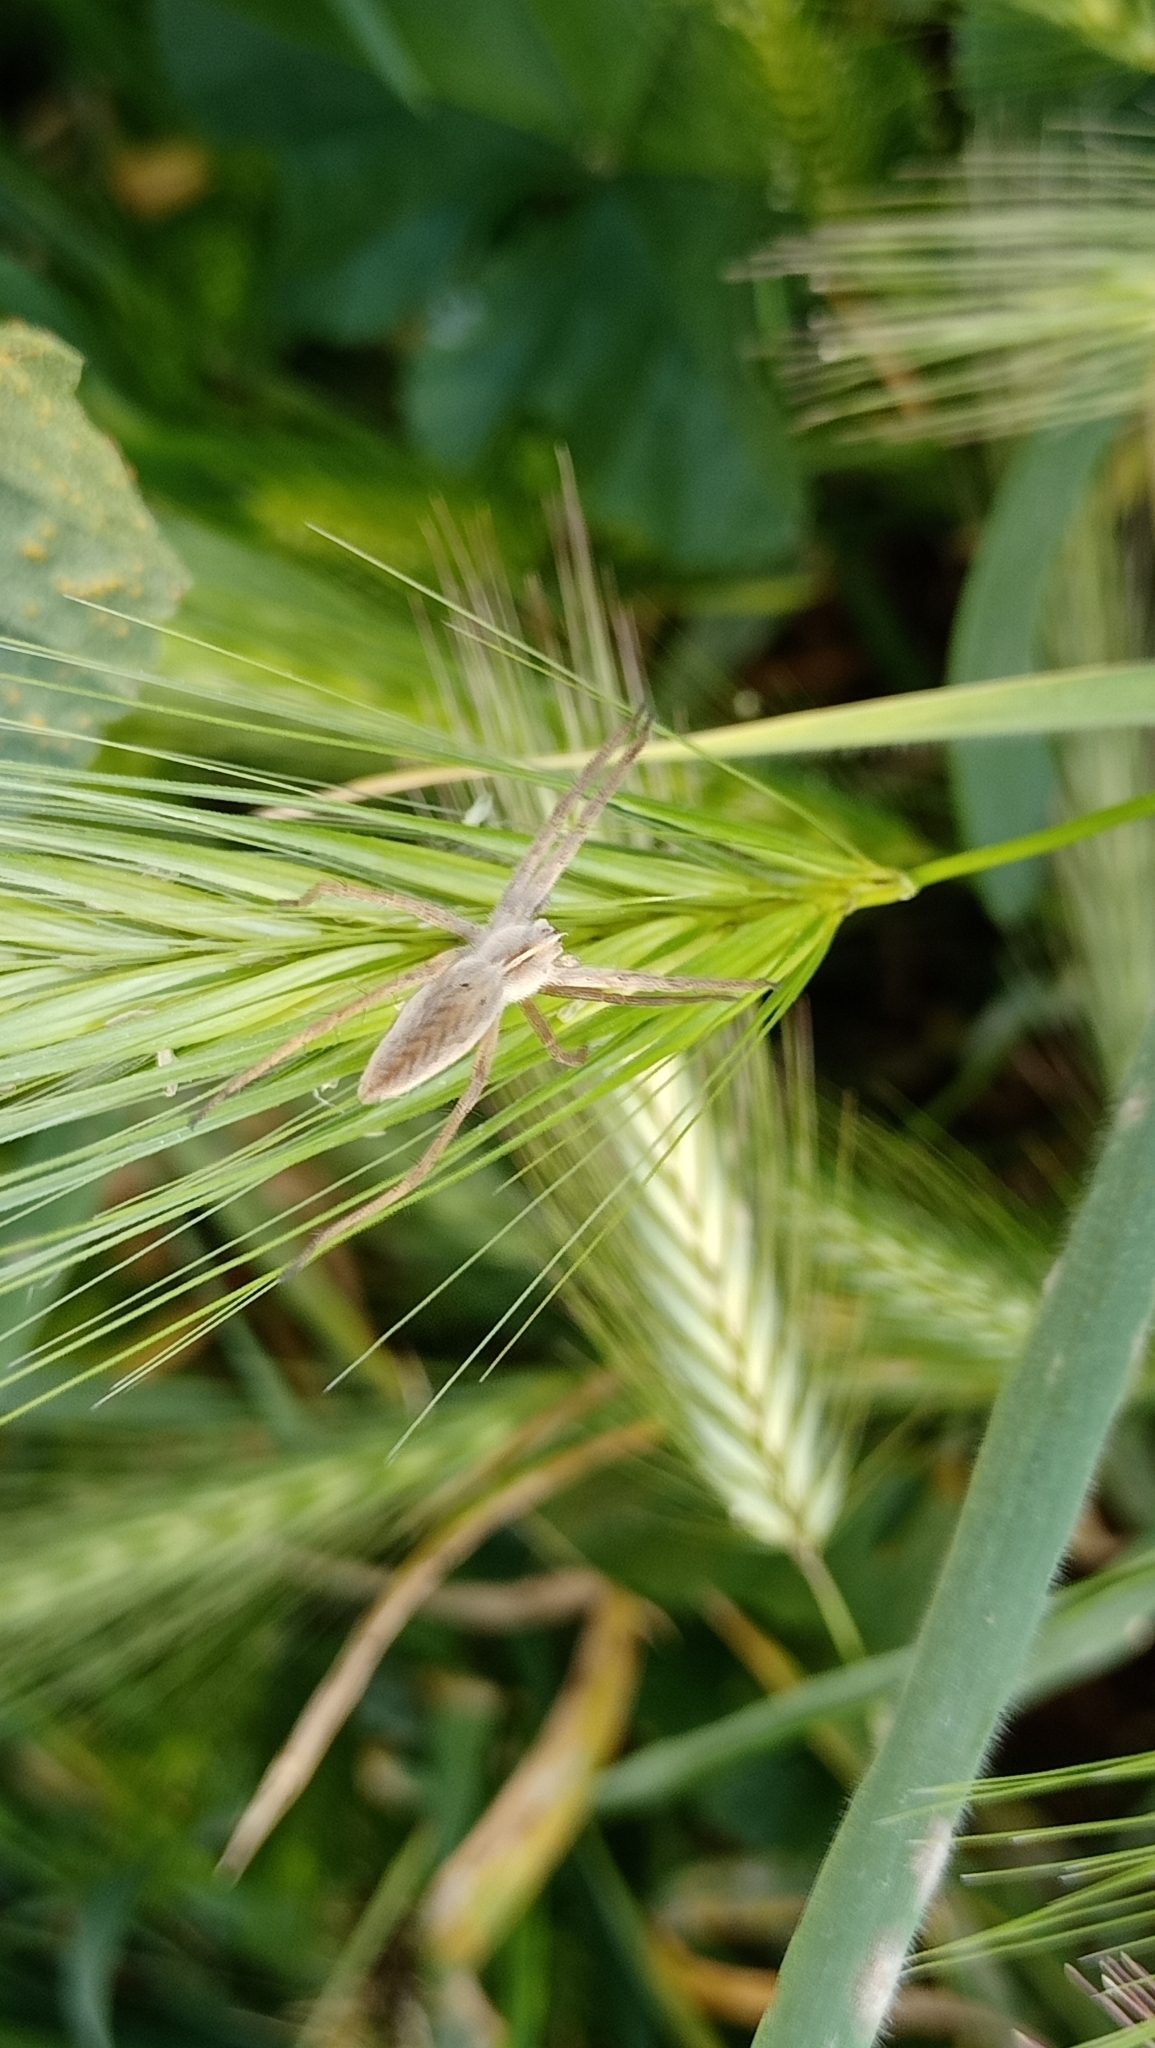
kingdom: Animalia
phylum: Arthropoda
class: Arachnida
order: Araneae
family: Pisauridae
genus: Pisaura
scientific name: Pisaura mirabilis
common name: Tent spider
